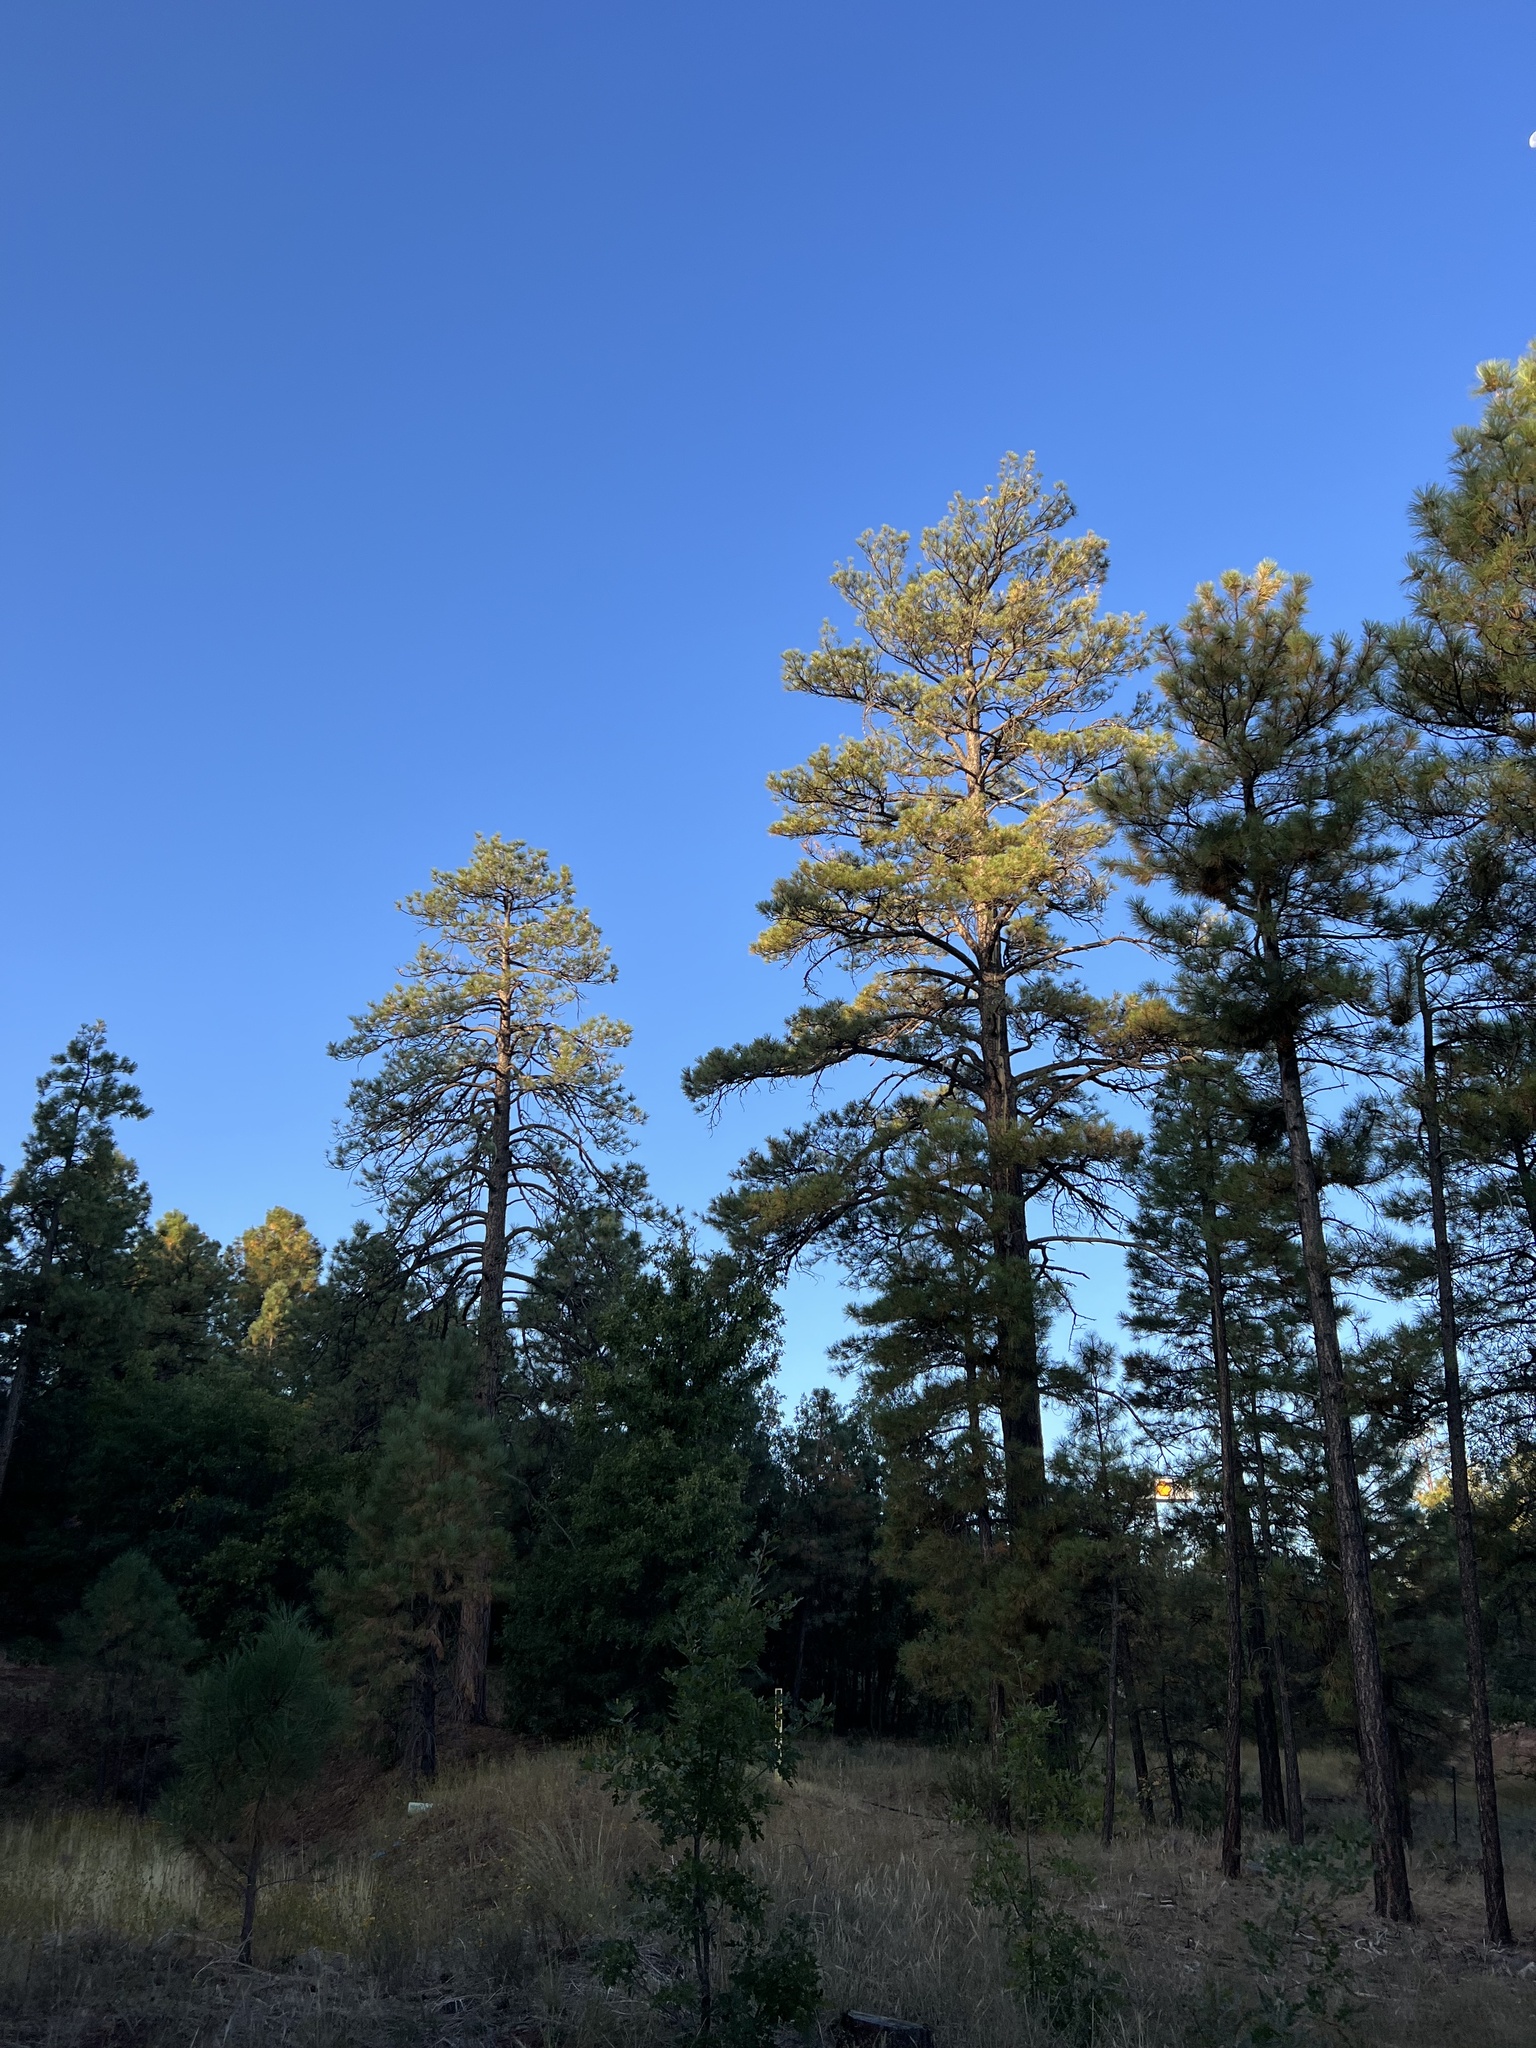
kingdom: Plantae
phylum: Tracheophyta
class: Pinopsida
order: Pinales
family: Pinaceae
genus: Pinus
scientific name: Pinus ponderosa
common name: Western yellow-pine
